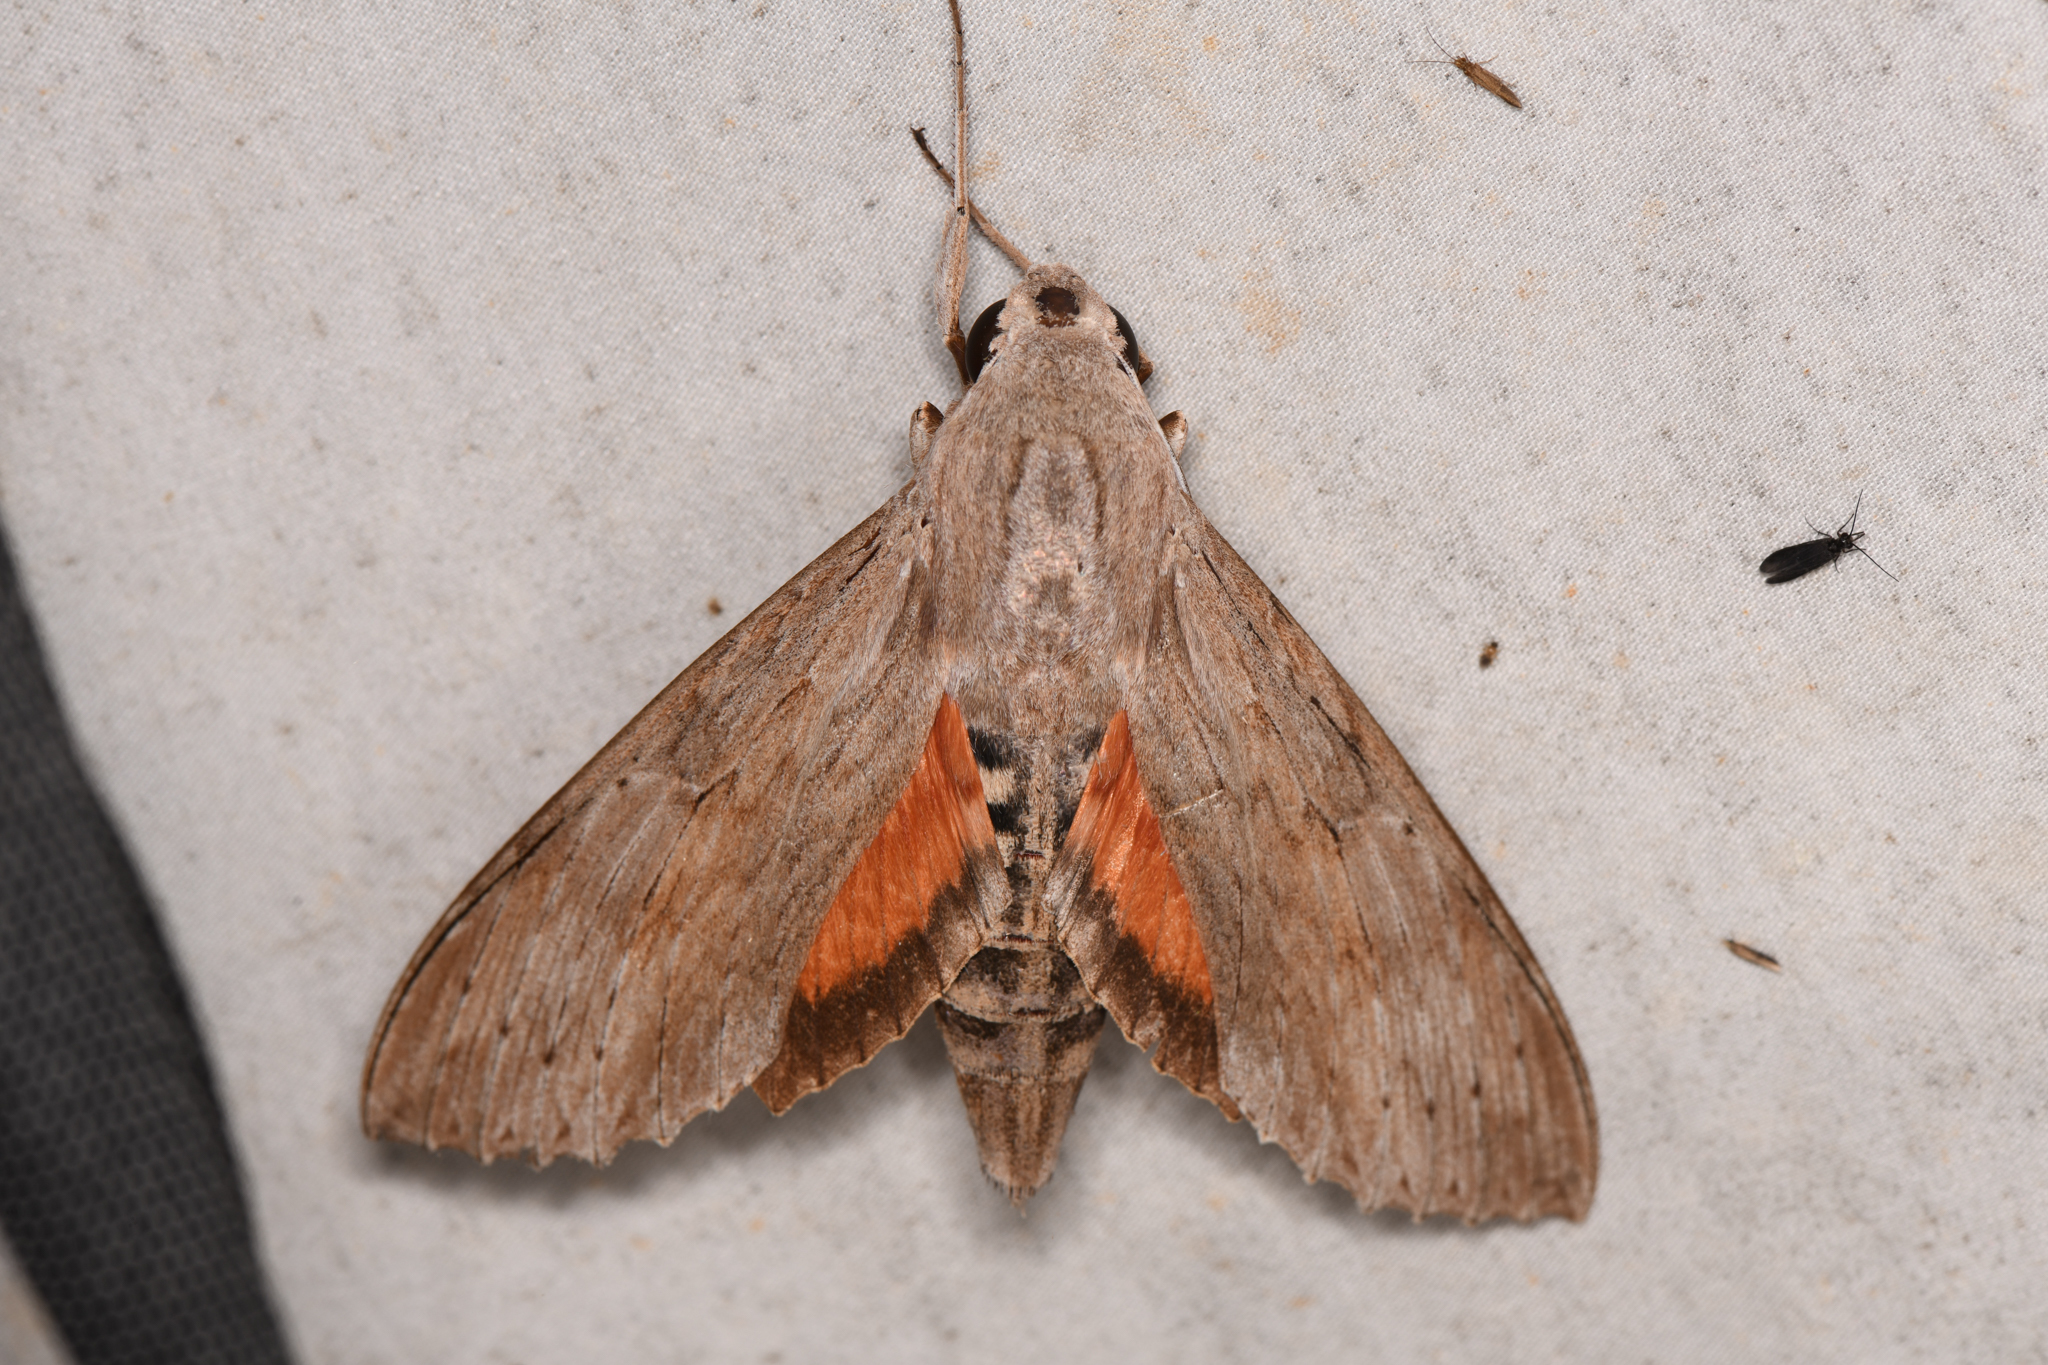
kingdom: Animalia
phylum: Arthropoda
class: Insecta
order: Lepidoptera
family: Sphingidae
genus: Erinnyis
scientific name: Erinnyis ello
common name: Ello sphinx
